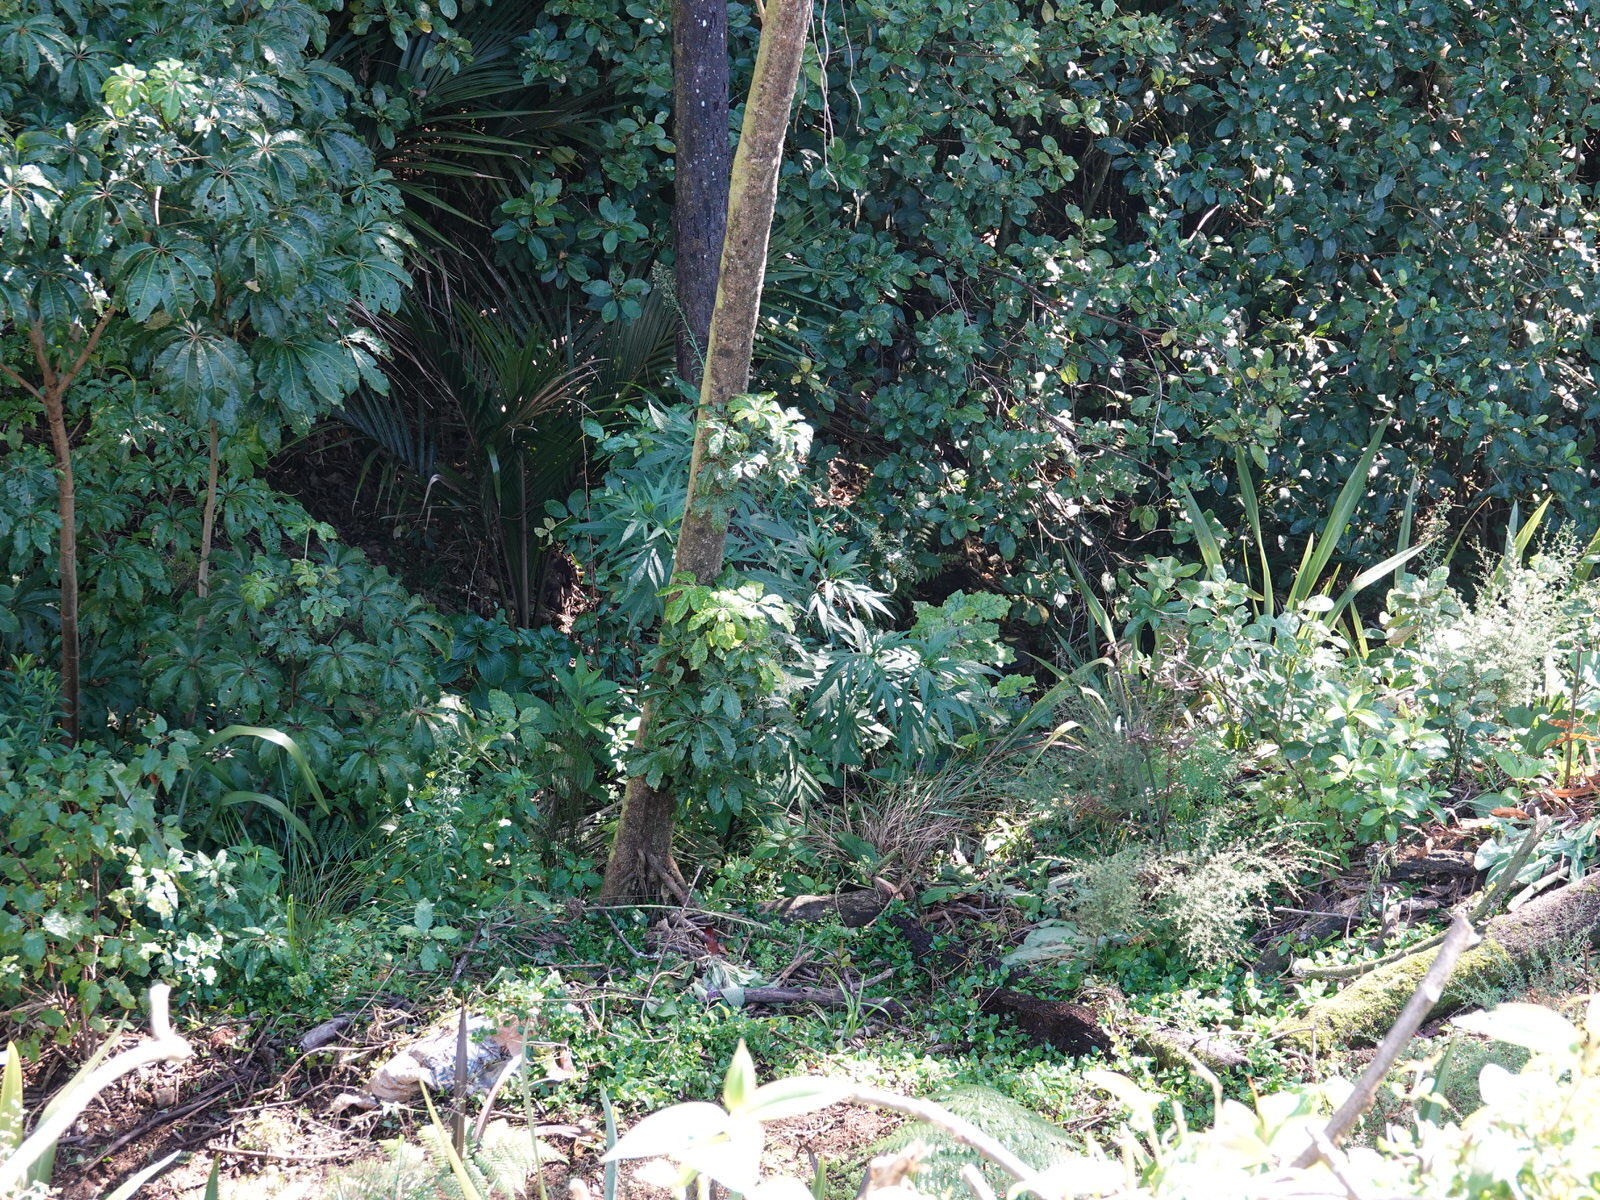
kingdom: Plantae
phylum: Tracheophyta
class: Magnoliopsida
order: Solanales
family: Solanaceae
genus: Solanum
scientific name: Solanum
